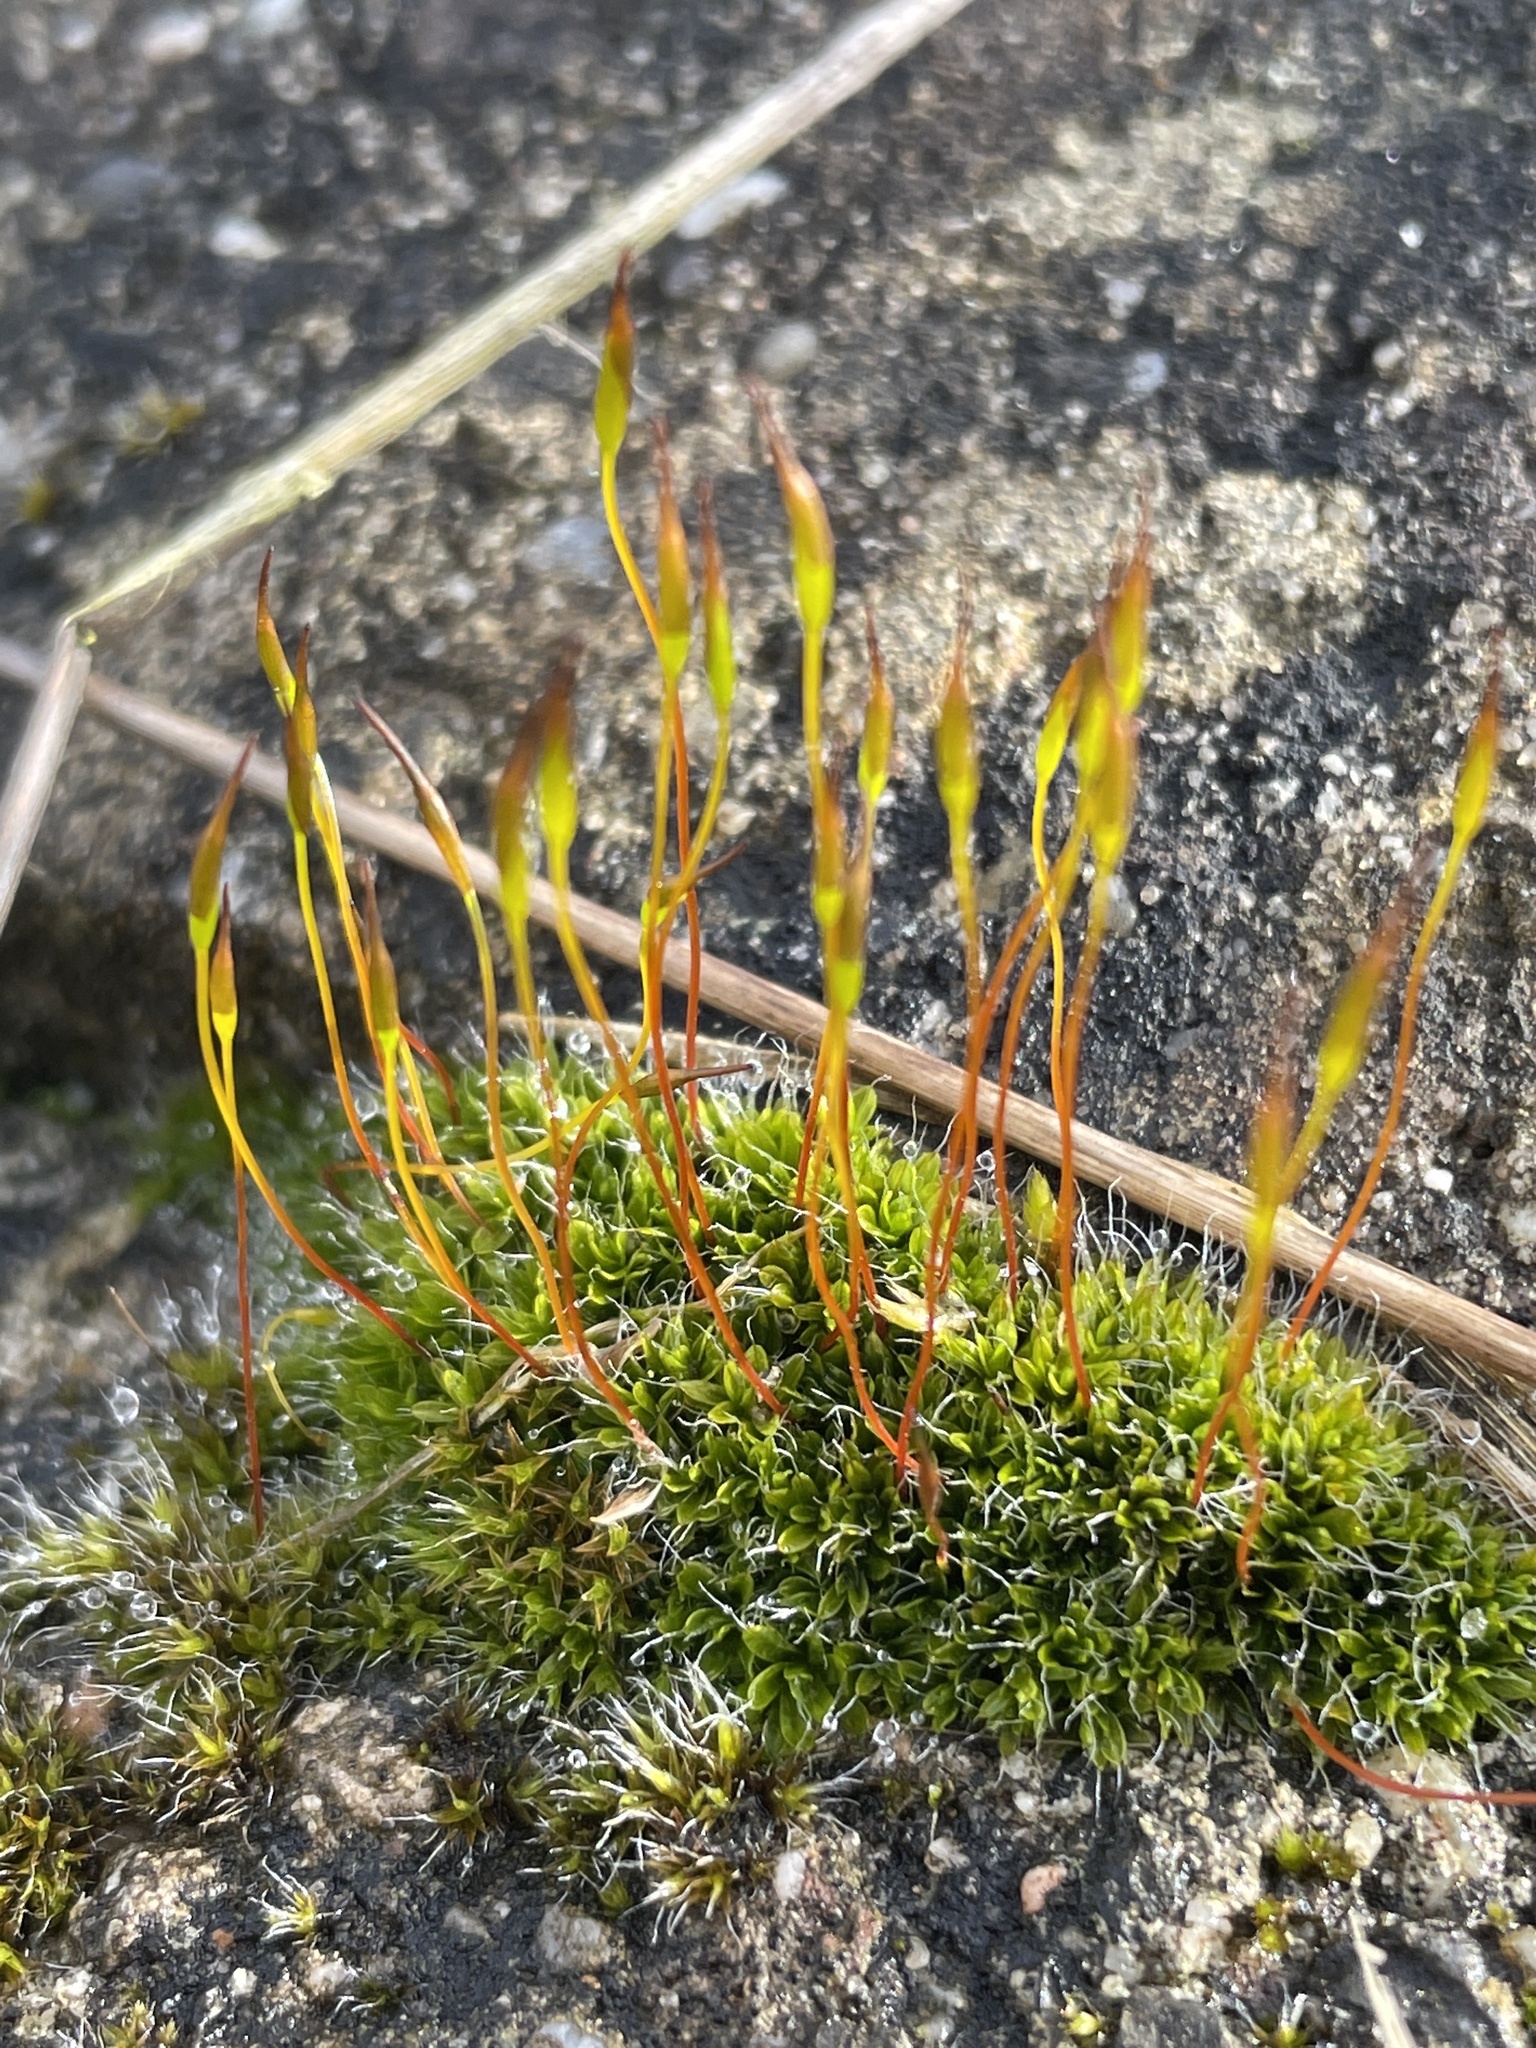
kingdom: Plantae
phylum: Bryophyta
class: Bryopsida
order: Pottiales
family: Pottiaceae
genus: Tortula
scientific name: Tortula muralis
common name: Wall screw-moss
